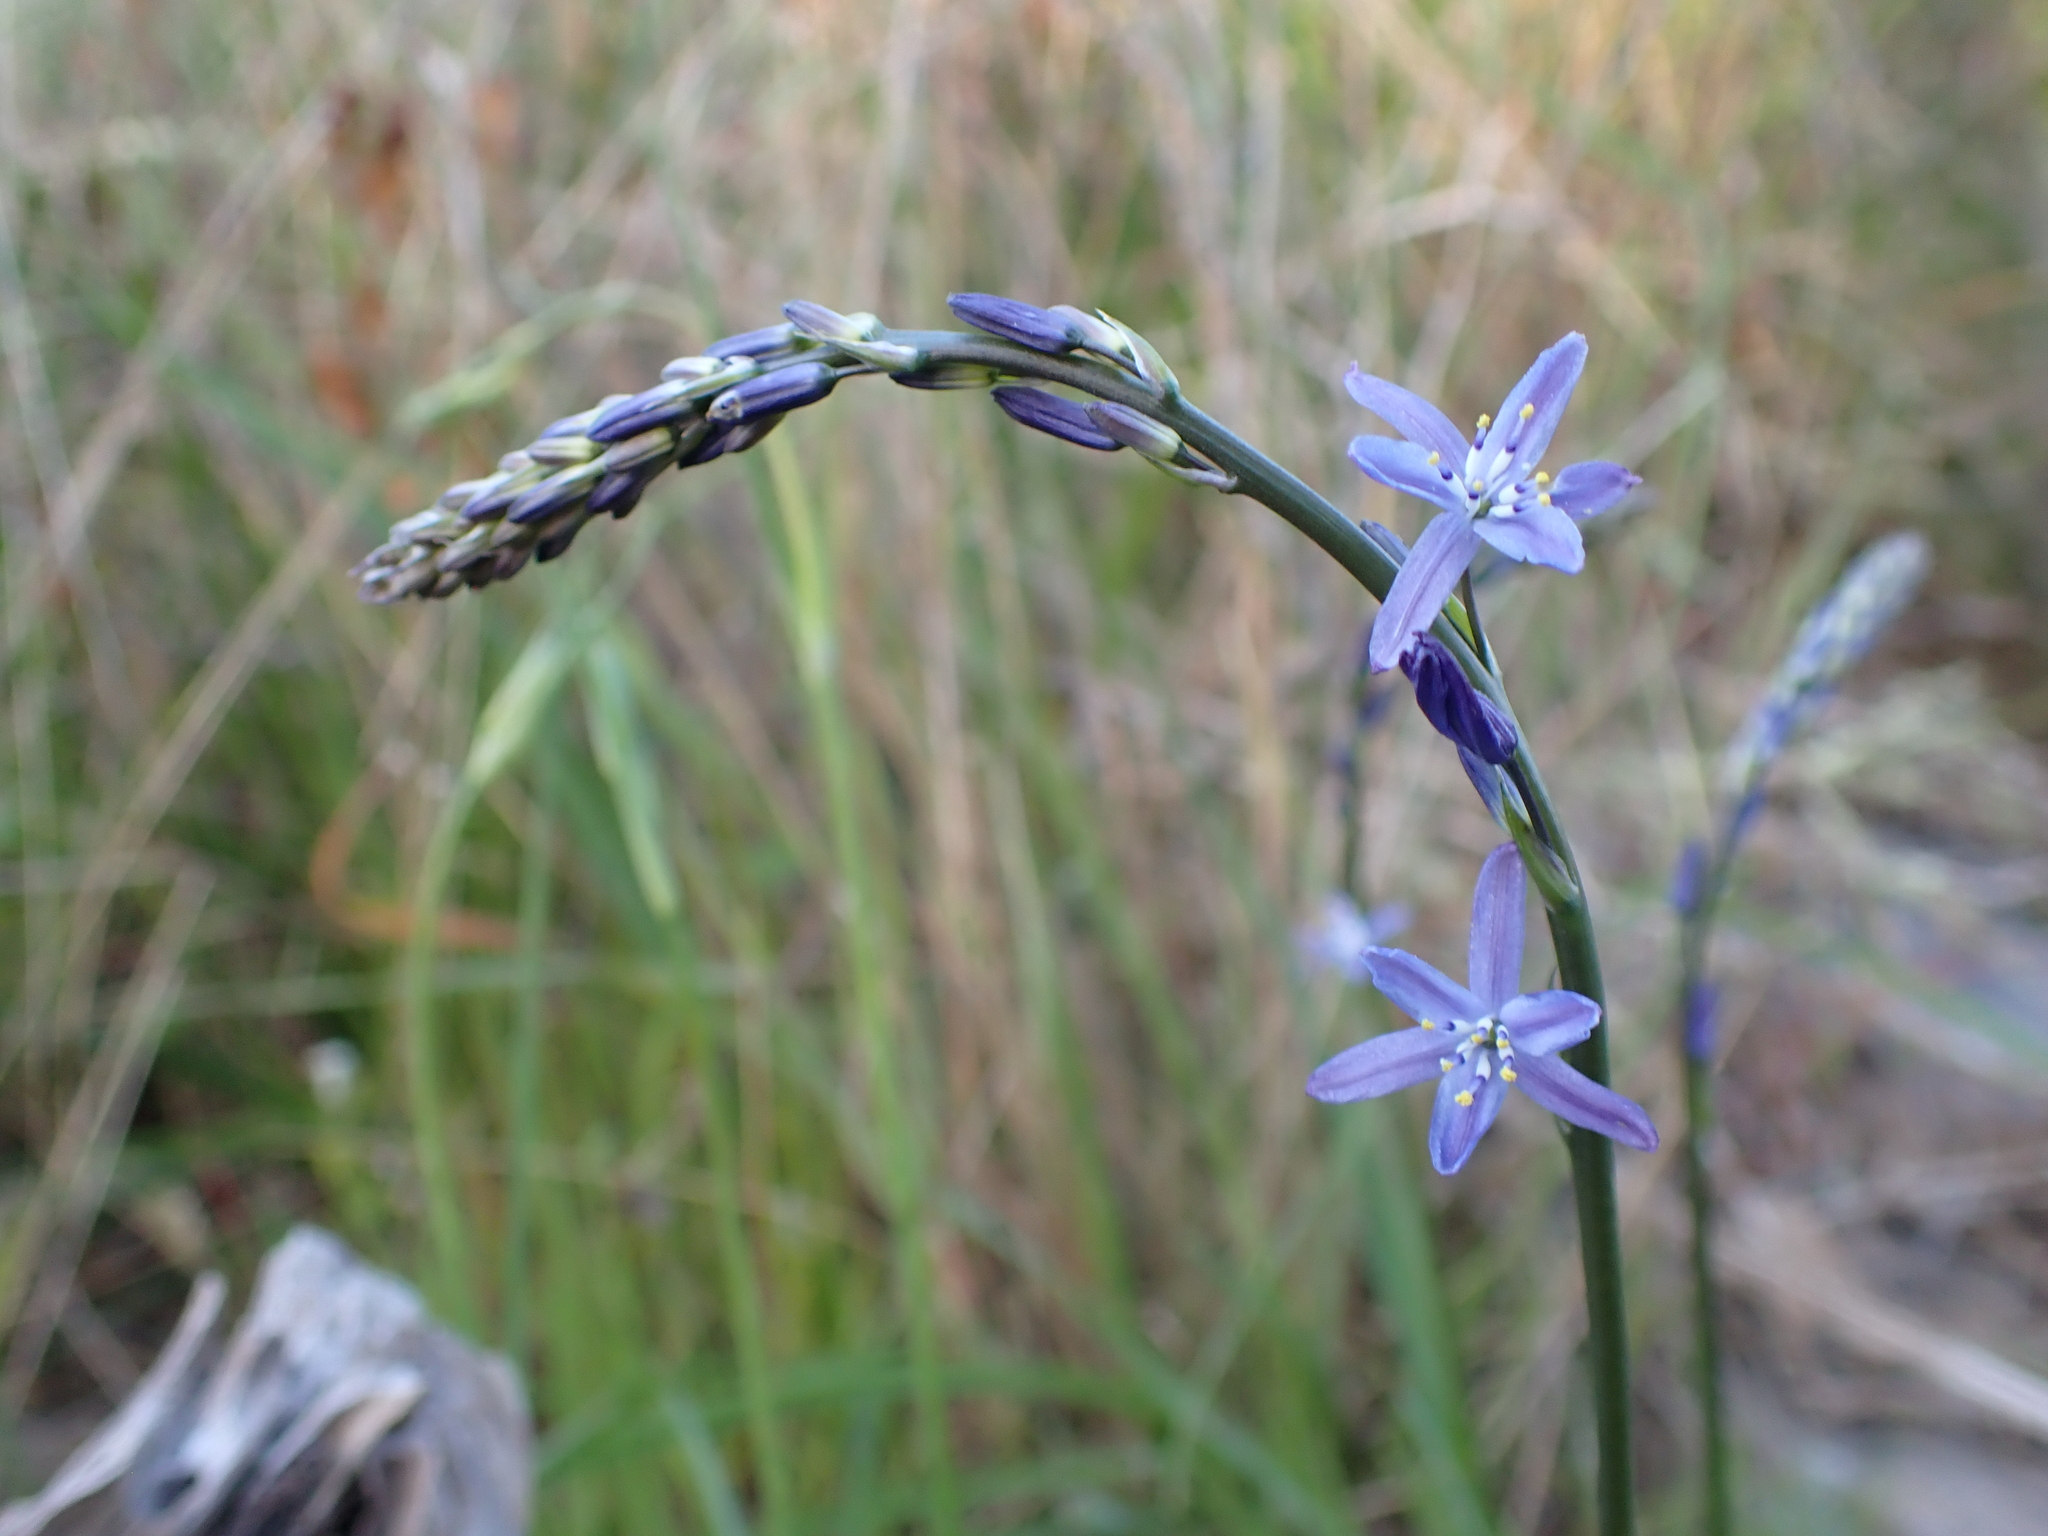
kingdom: Plantae
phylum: Tracheophyta
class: Liliopsida
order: Asparagales
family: Asphodelaceae
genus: Caesia
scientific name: Caesia calliantha
